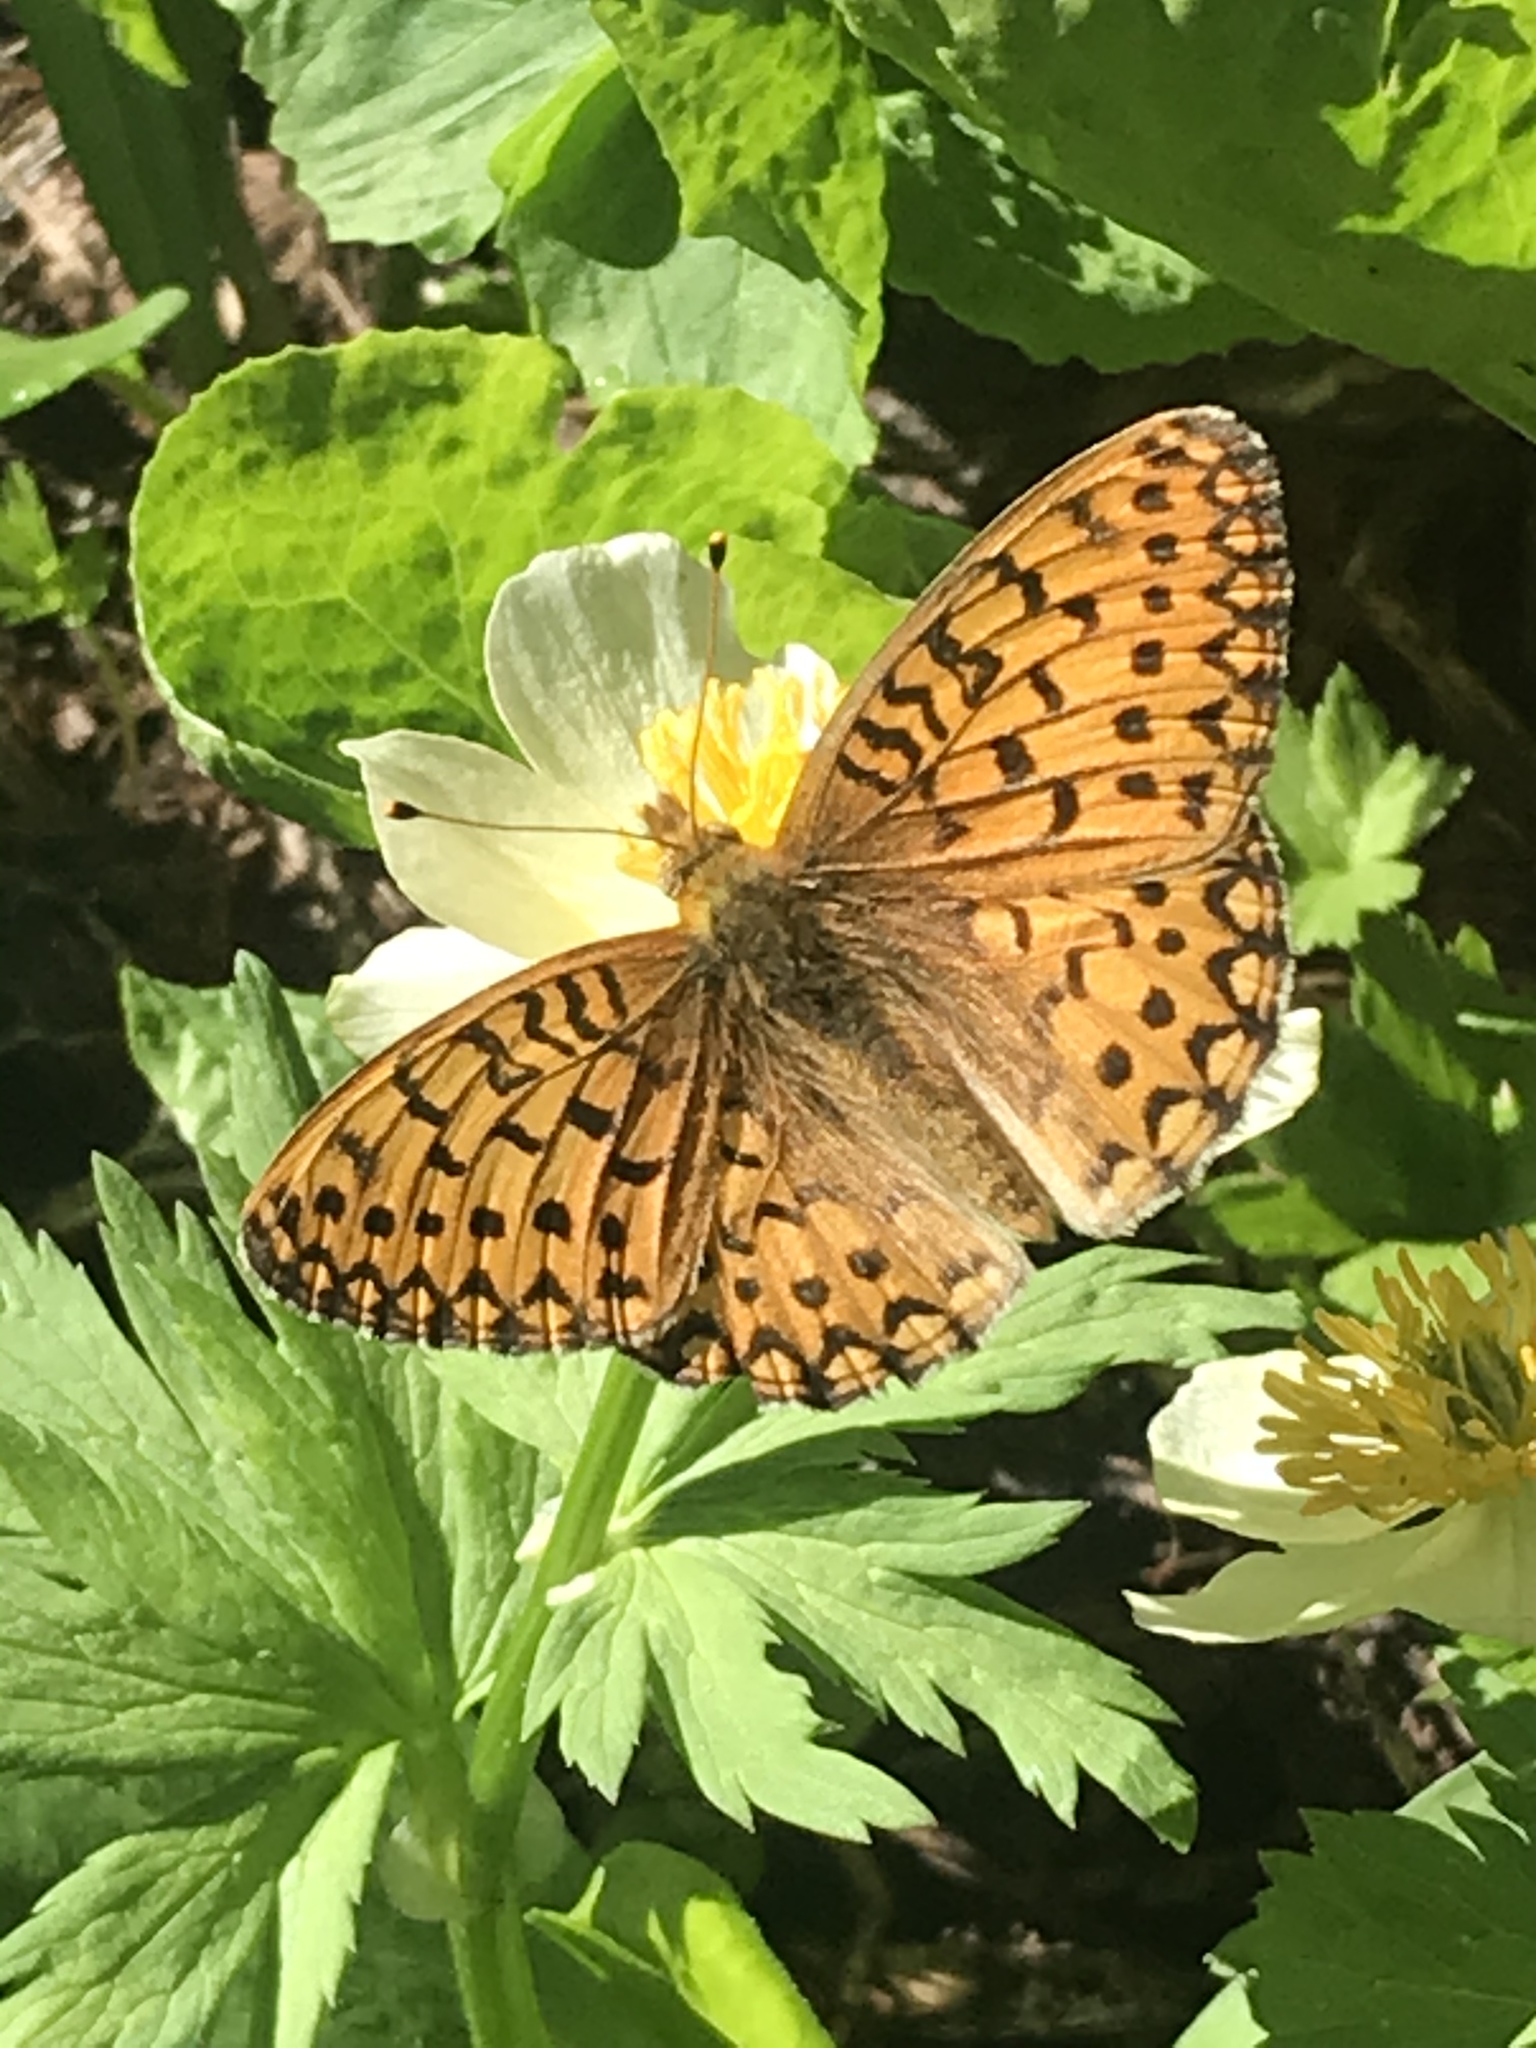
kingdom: Animalia
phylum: Arthropoda
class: Insecta
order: Lepidoptera
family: Nymphalidae
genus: Speyeria
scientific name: Speyeria mormonia
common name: Mormon fritillary
